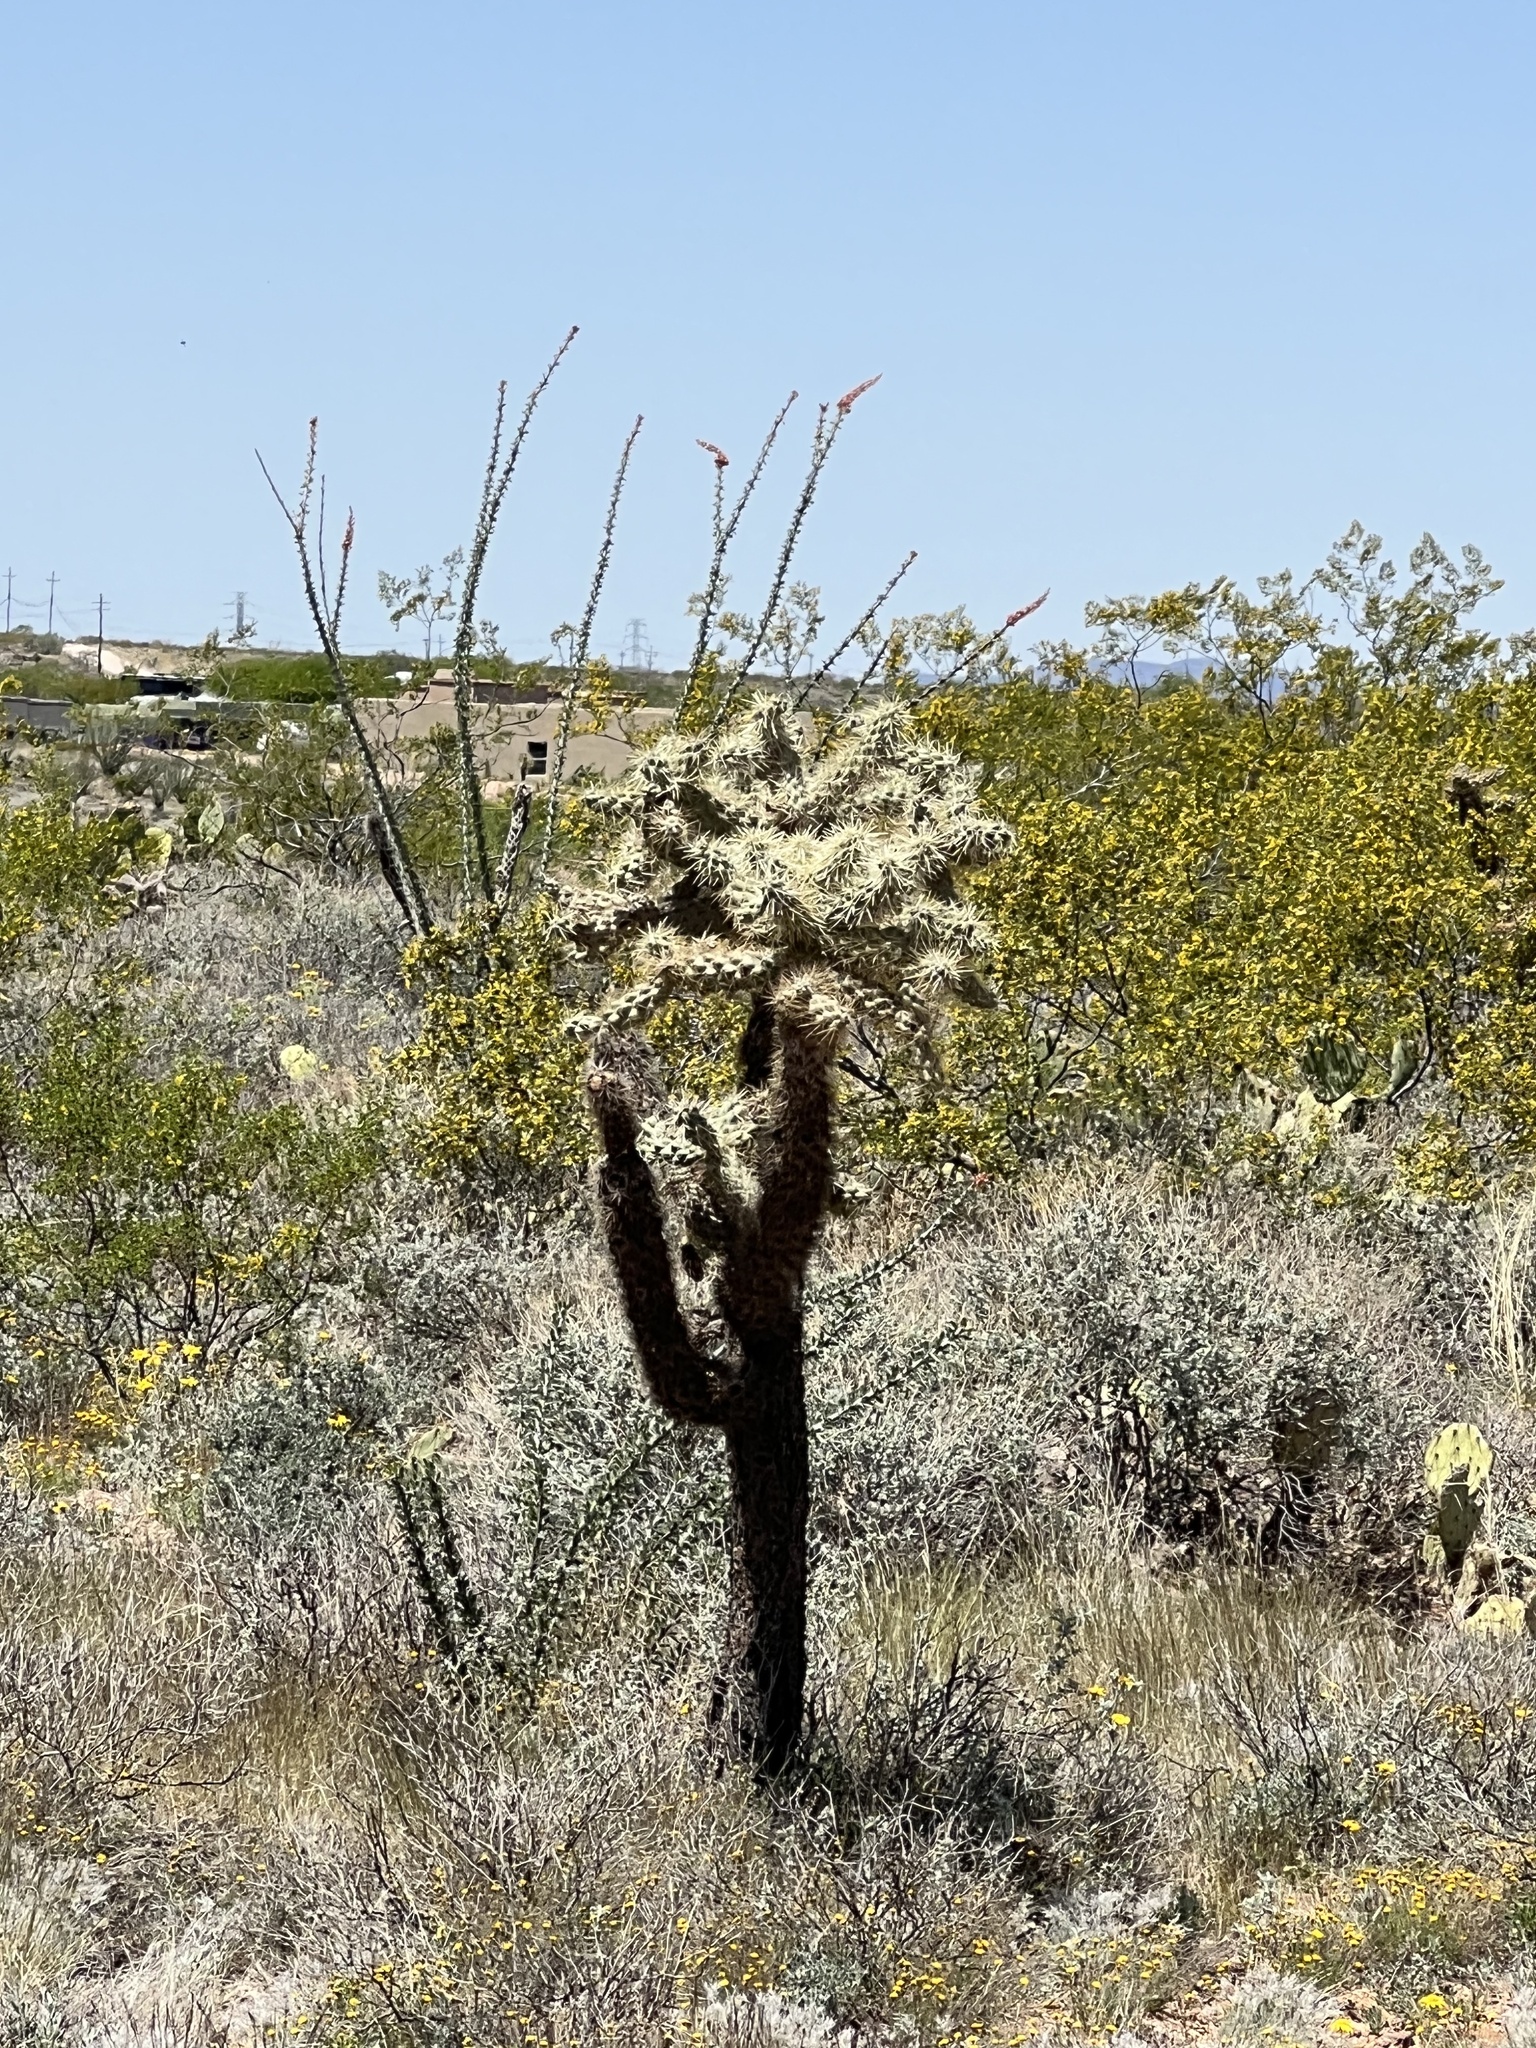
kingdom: Plantae
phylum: Tracheophyta
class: Magnoliopsida
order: Caryophyllales
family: Cactaceae
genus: Cylindropuntia
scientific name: Cylindropuntia fulgida
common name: Jumping cholla
